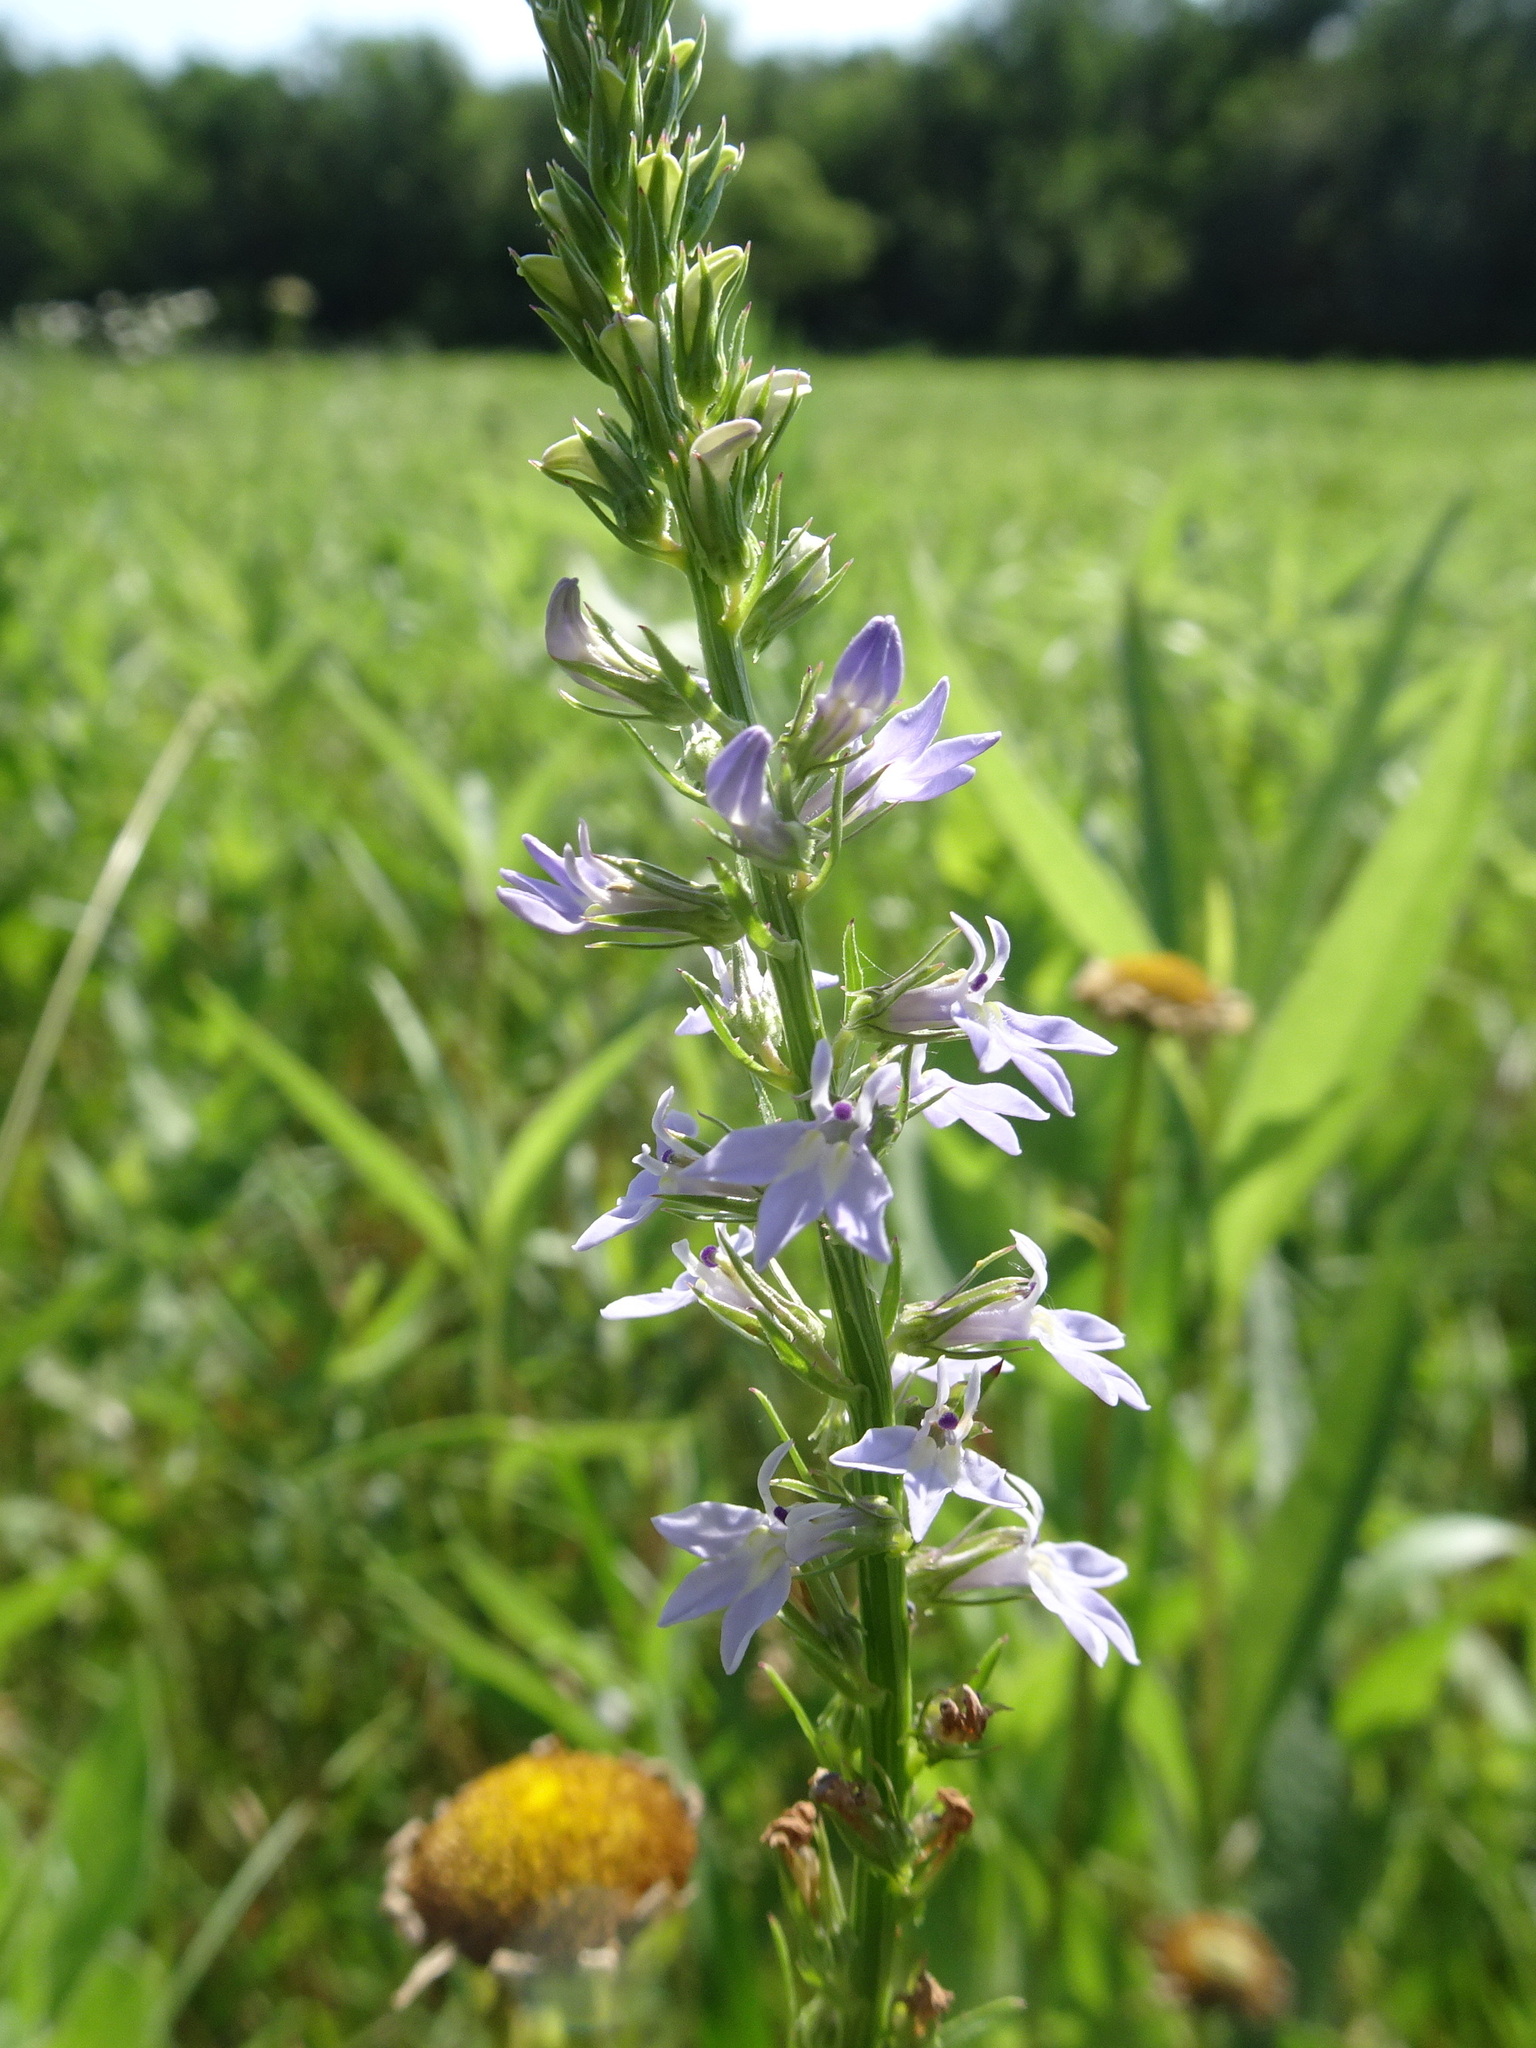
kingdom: Plantae
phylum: Tracheophyta
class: Magnoliopsida
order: Asterales
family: Campanulaceae
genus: Lobelia
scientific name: Lobelia spicata
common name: Pale-spike lobelia
